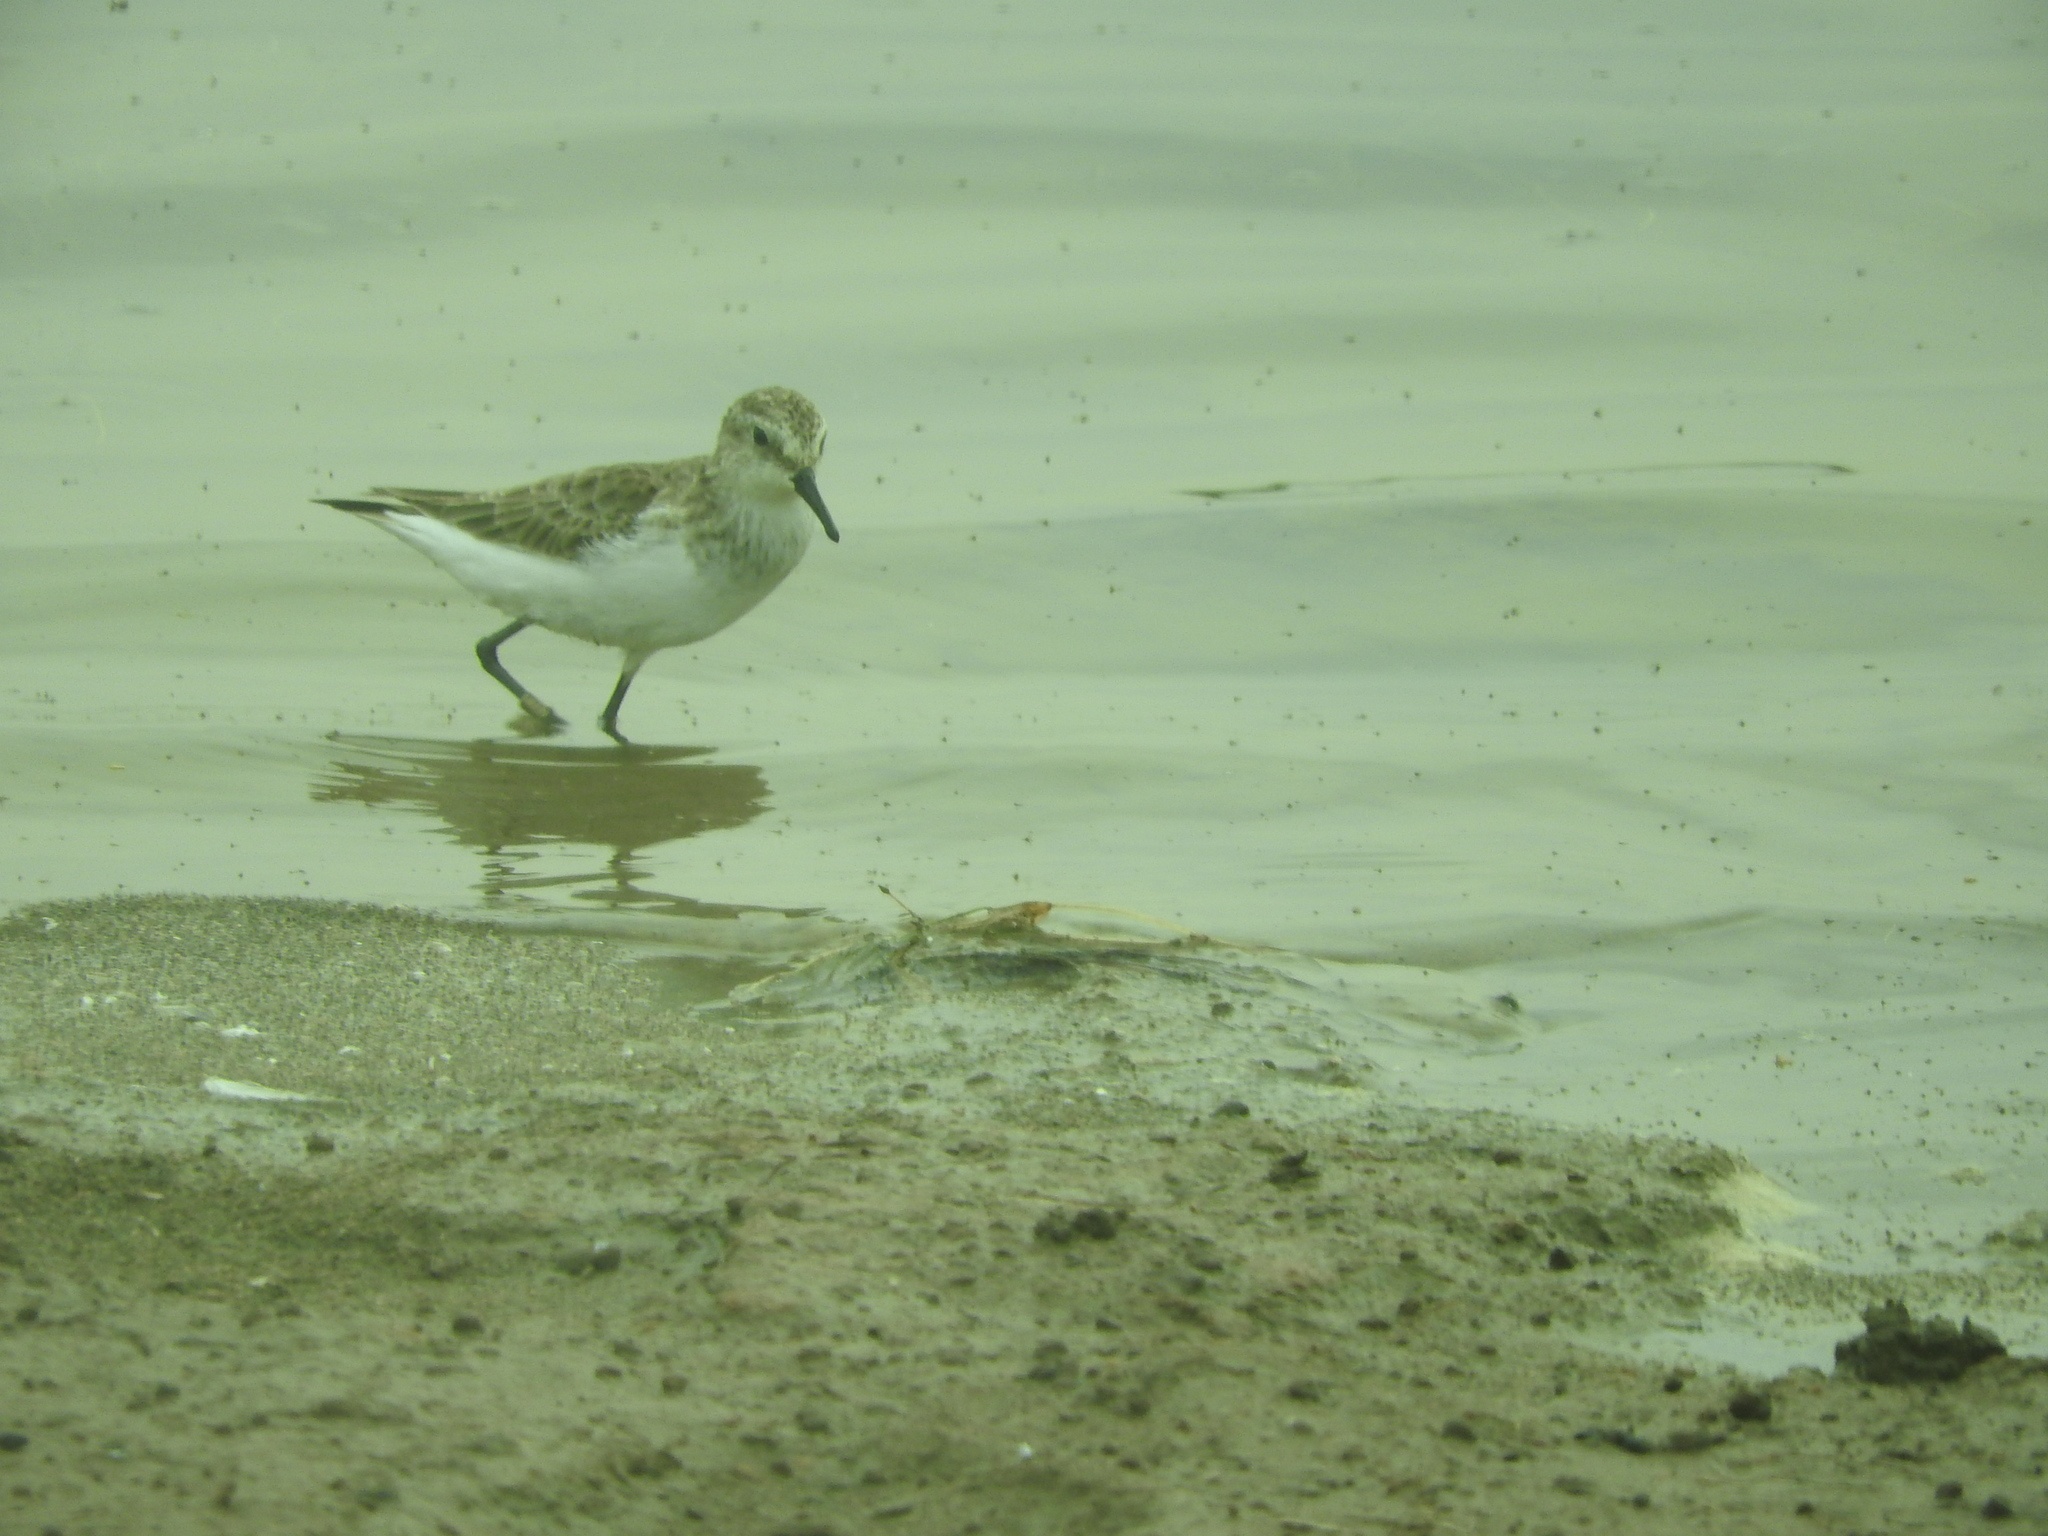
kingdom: Animalia
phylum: Chordata
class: Aves
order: Charadriiformes
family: Scolopacidae
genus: Calidris
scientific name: Calidris minuta
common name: Little stint
